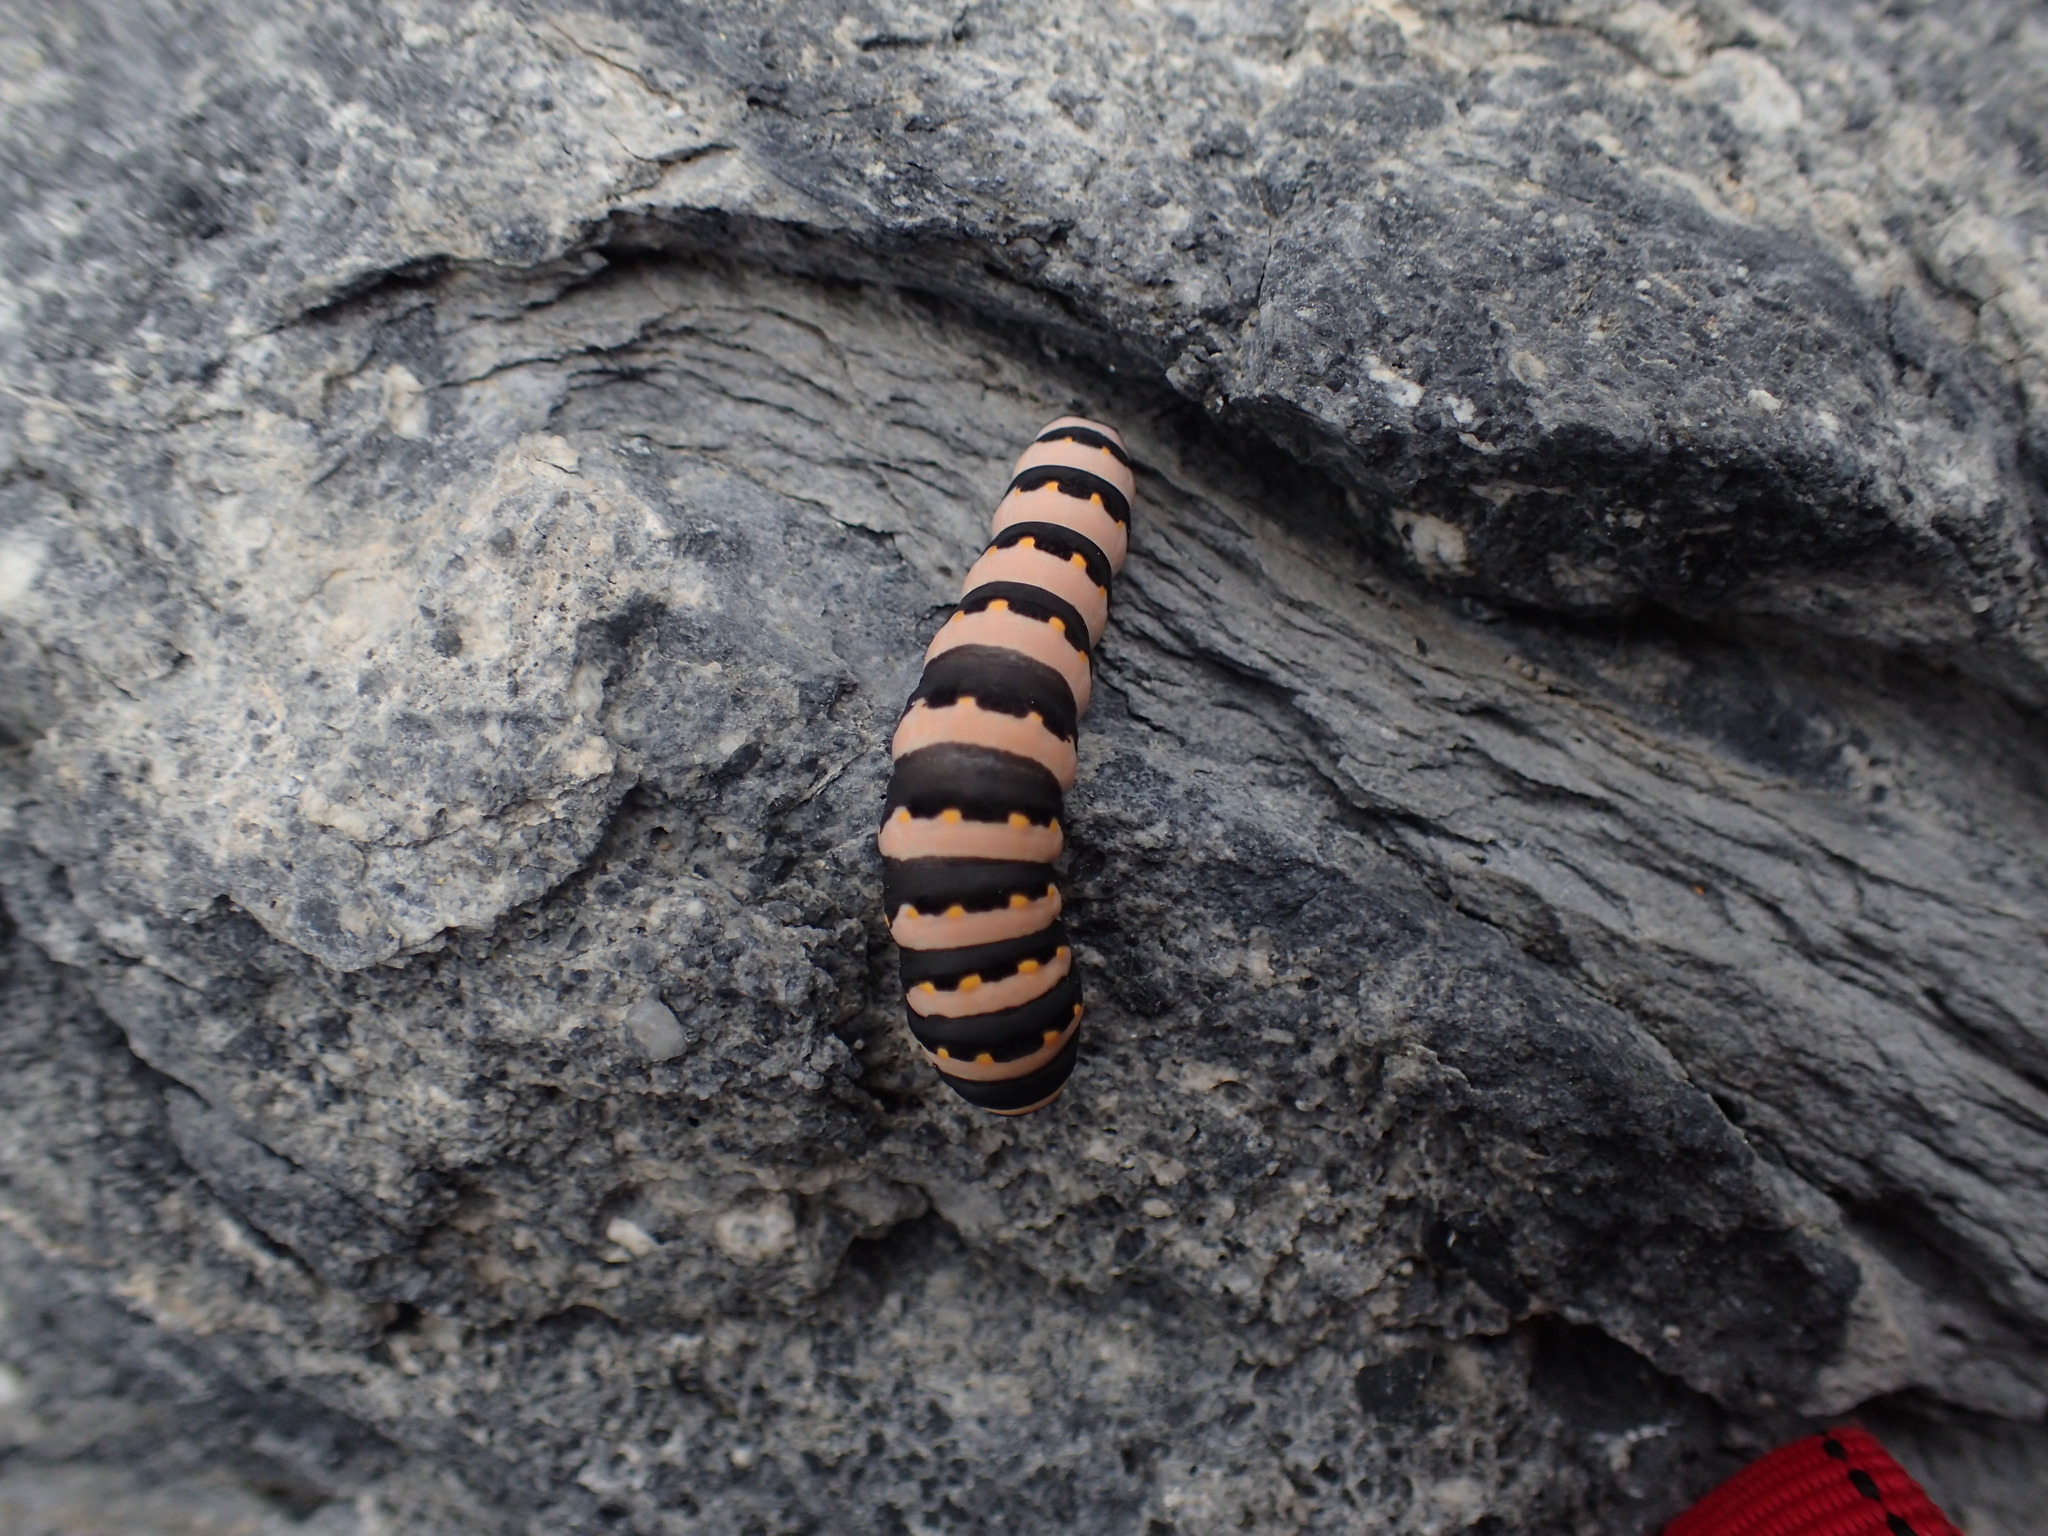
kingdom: Animalia
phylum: Arthropoda
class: Insecta
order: Lepidoptera
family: Papilionidae
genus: Papilio
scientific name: Papilio indra
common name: Cliff swallowtail
